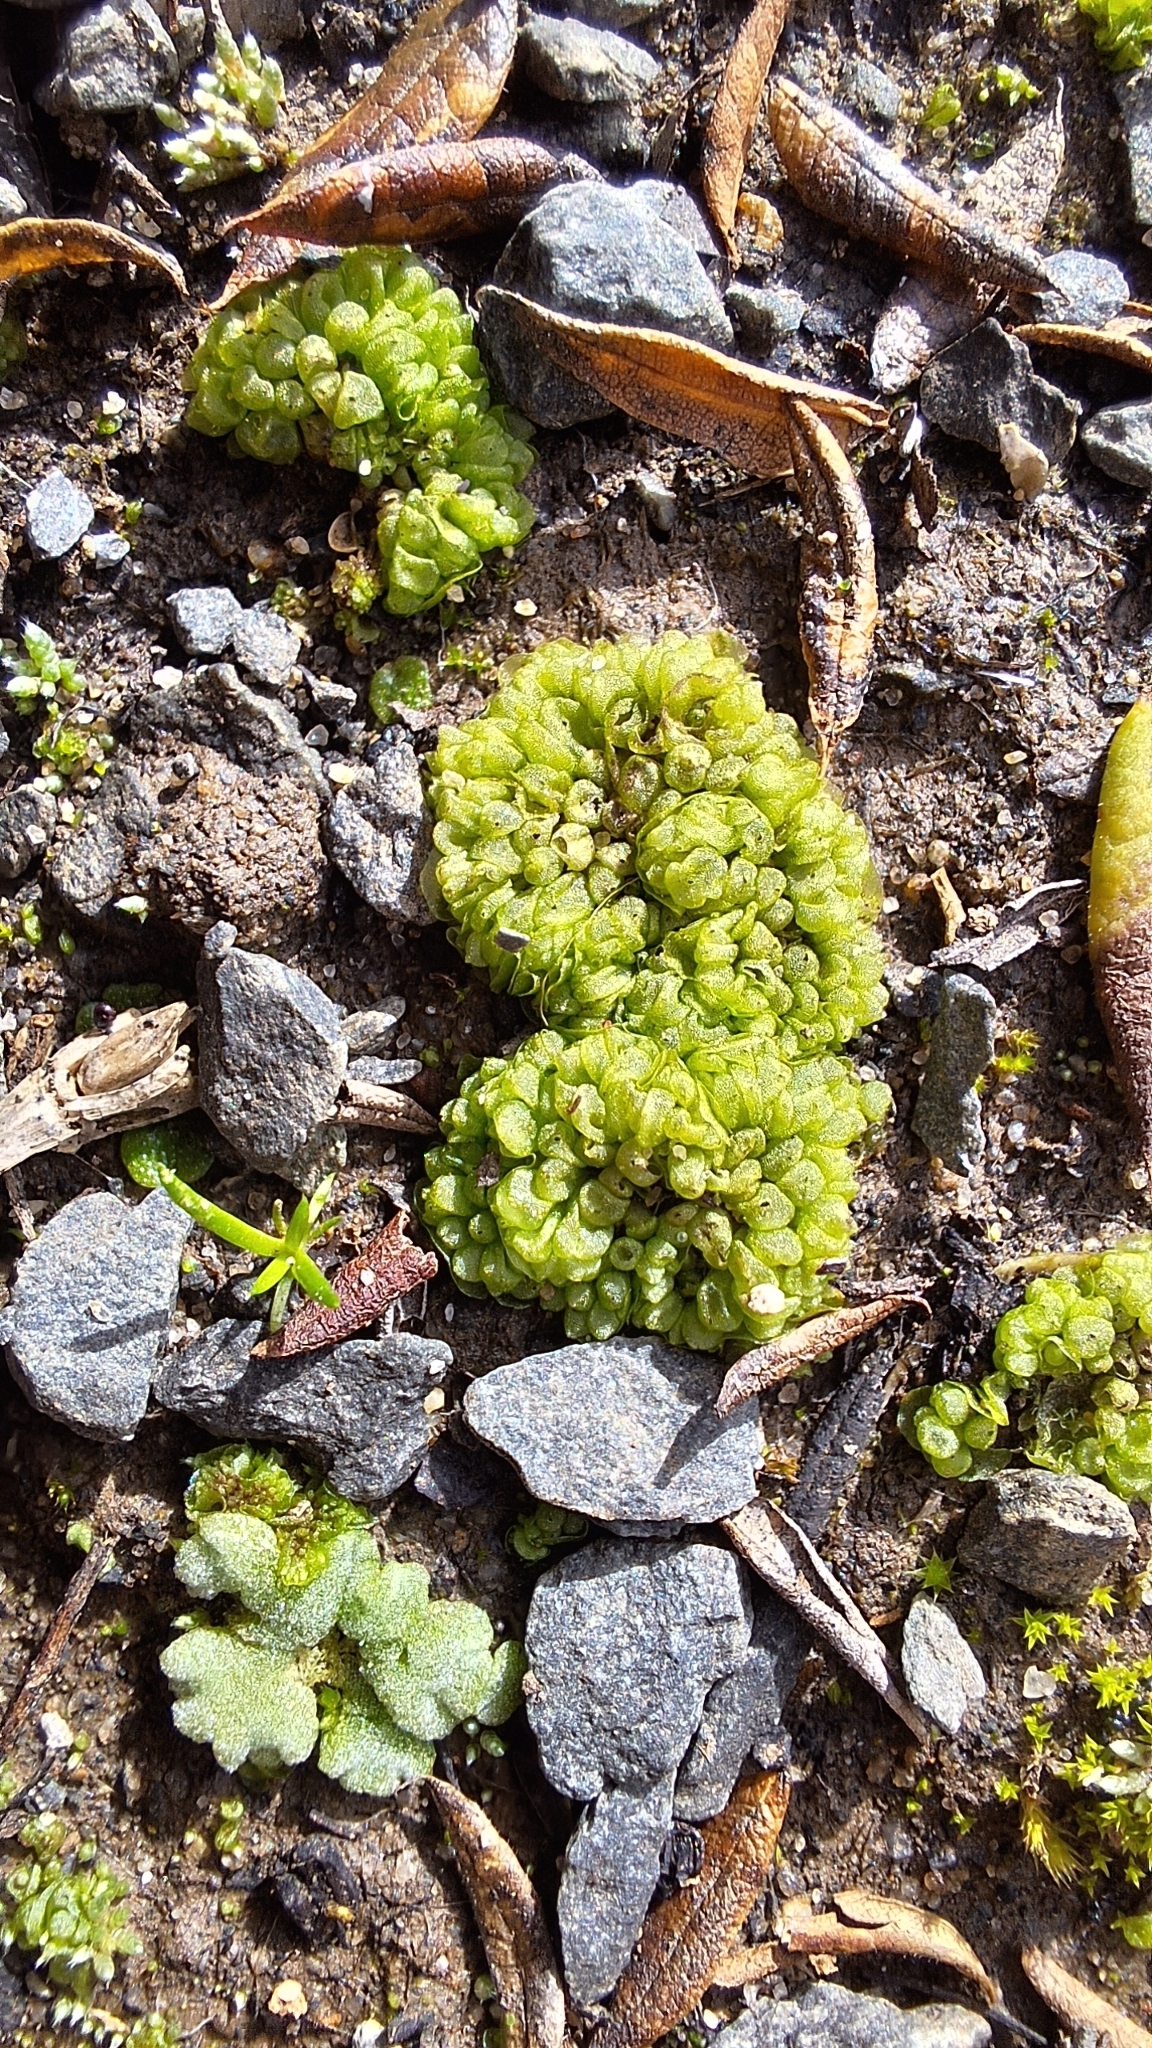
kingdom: Plantae
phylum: Marchantiophyta
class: Marchantiopsida
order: Sphaerocarpales
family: Sphaerocarpaceae
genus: Sphaerocarpos
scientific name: Sphaerocarpos texanus
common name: Texas balloonwort
